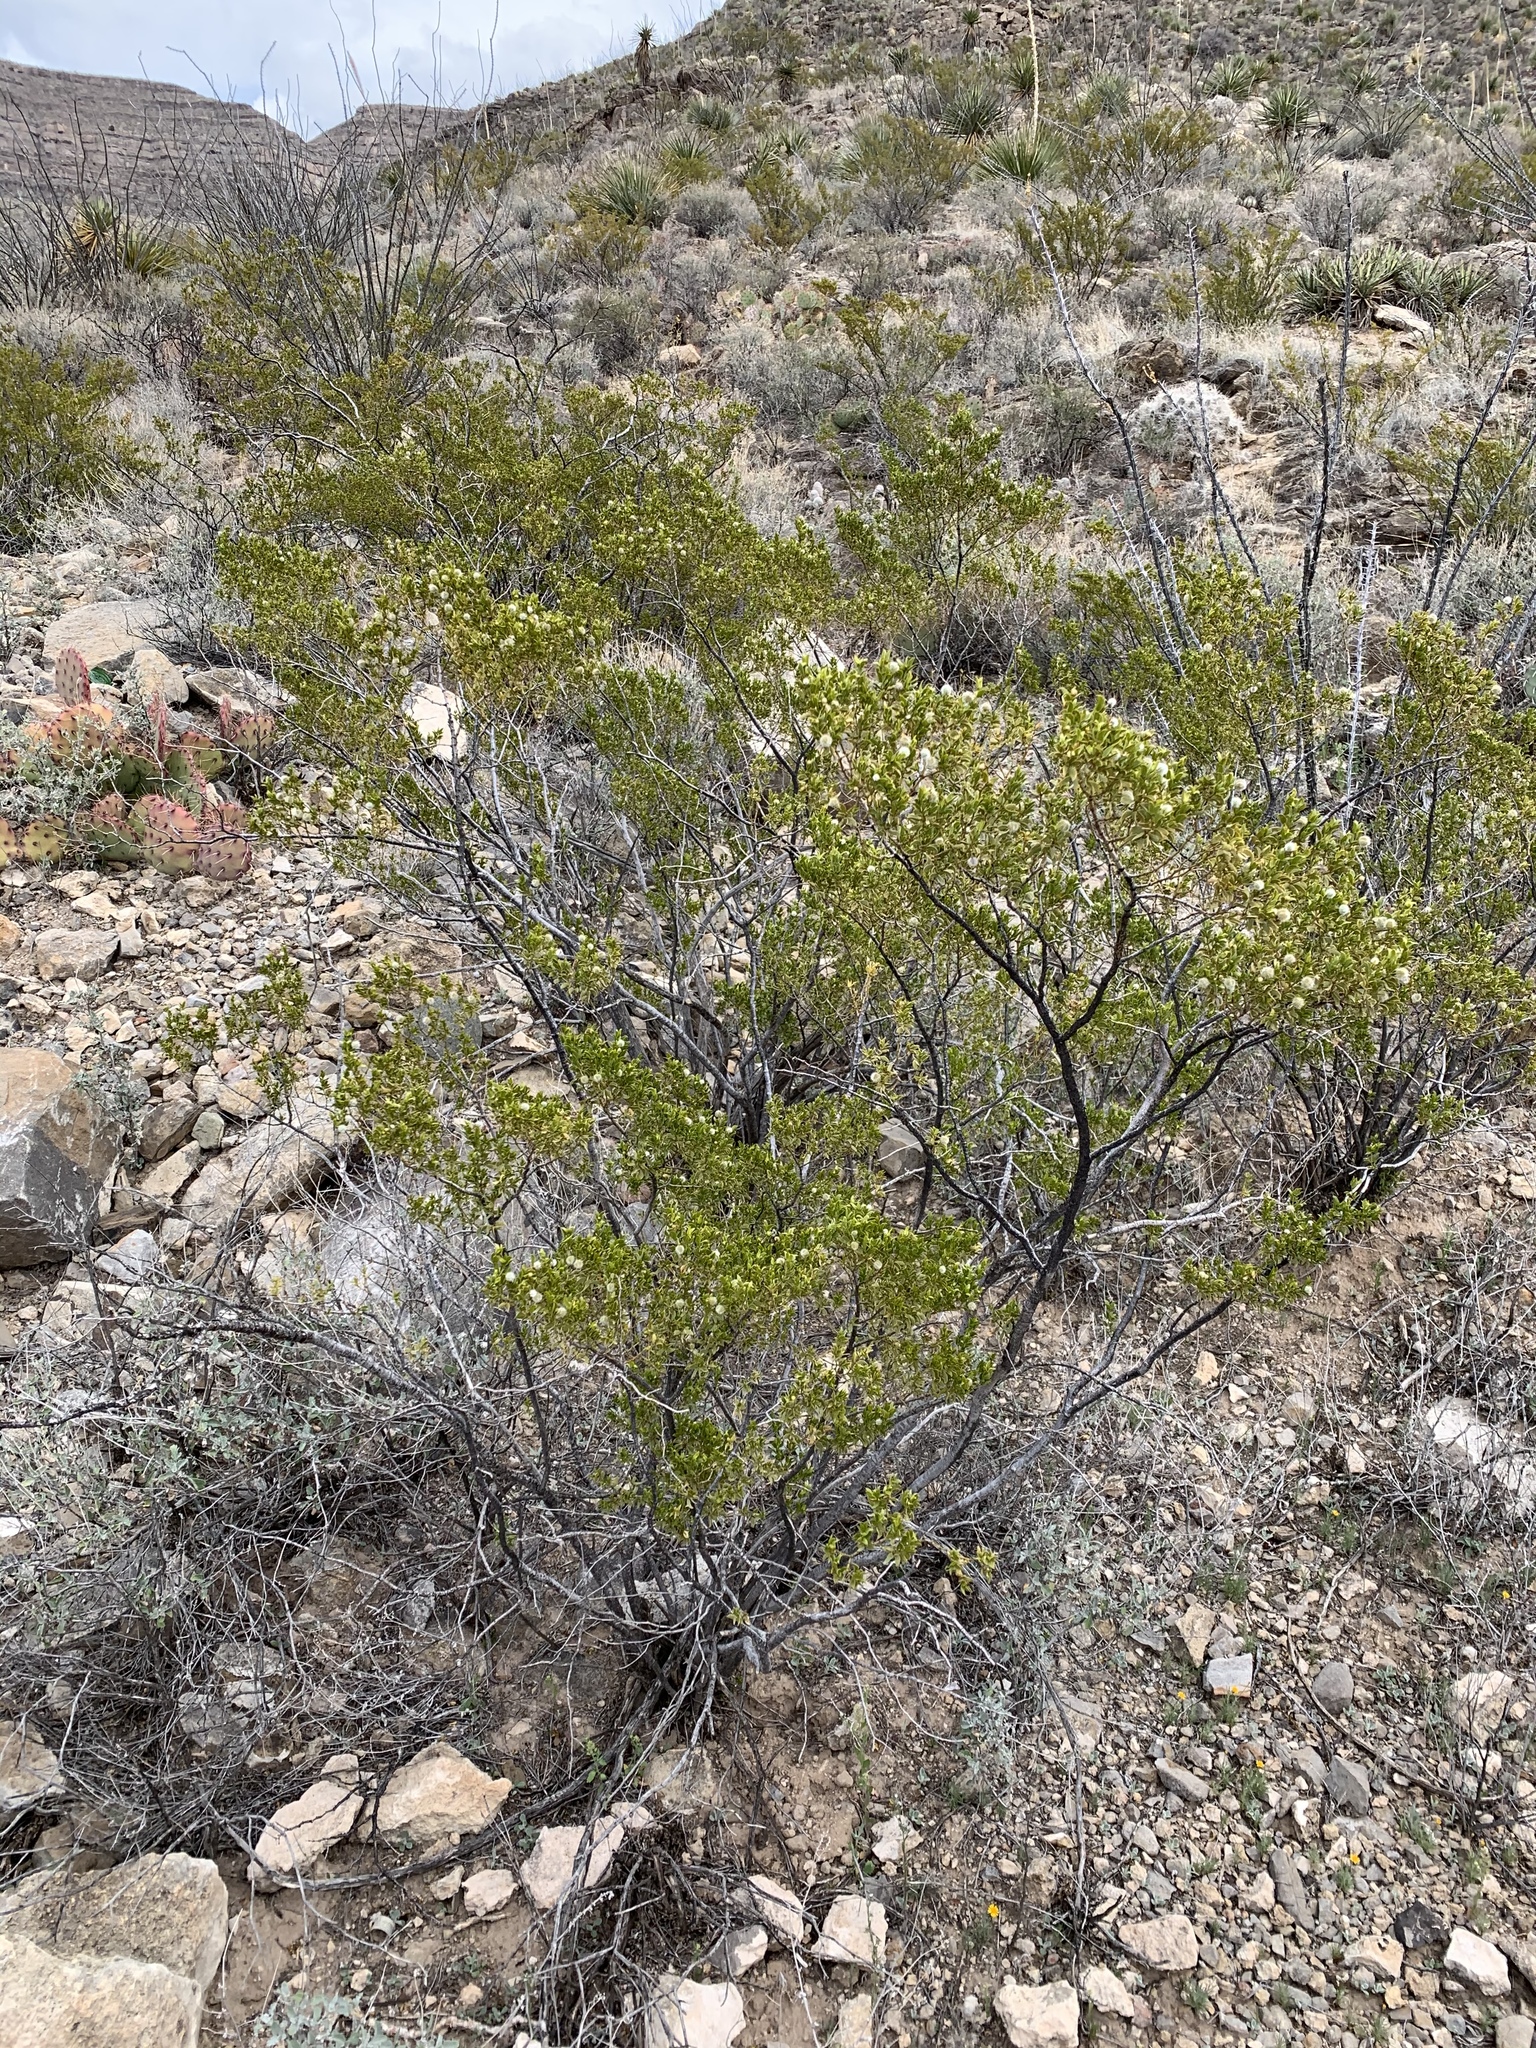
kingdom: Plantae
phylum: Tracheophyta
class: Magnoliopsida
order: Zygophyllales
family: Zygophyllaceae
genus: Larrea
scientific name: Larrea tridentata
